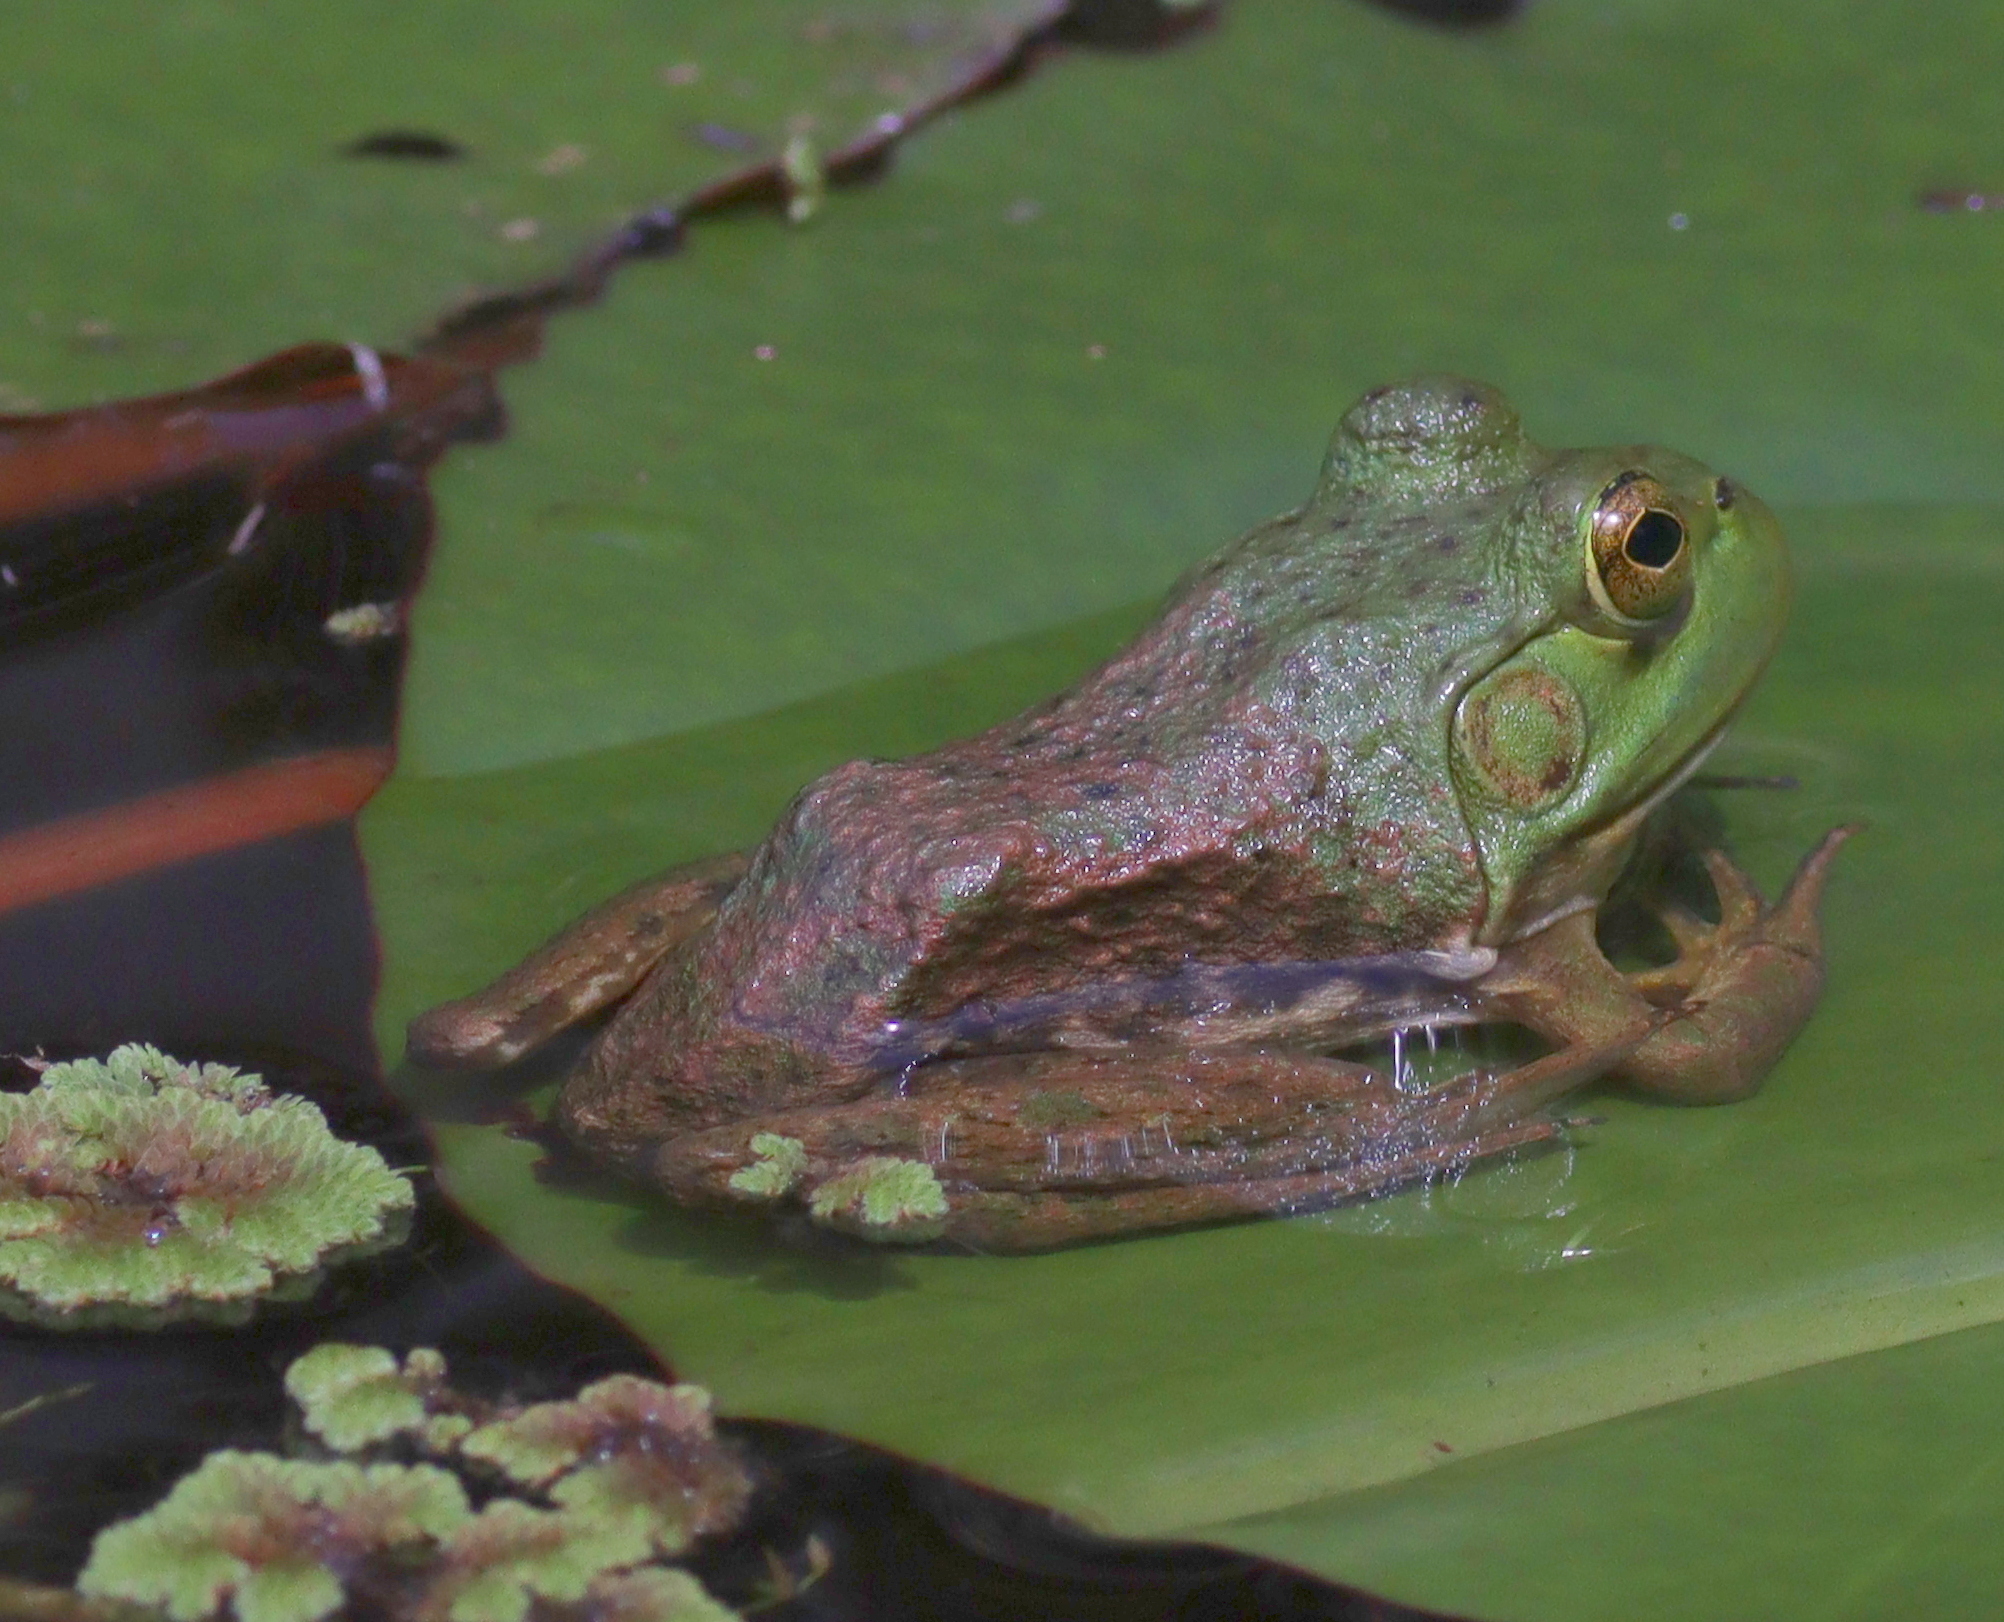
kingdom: Animalia
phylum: Chordata
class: Amphibia
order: Anura
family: Ranidae
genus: Lithobates
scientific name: Lithobates catesbeianus
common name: American bullfrog
